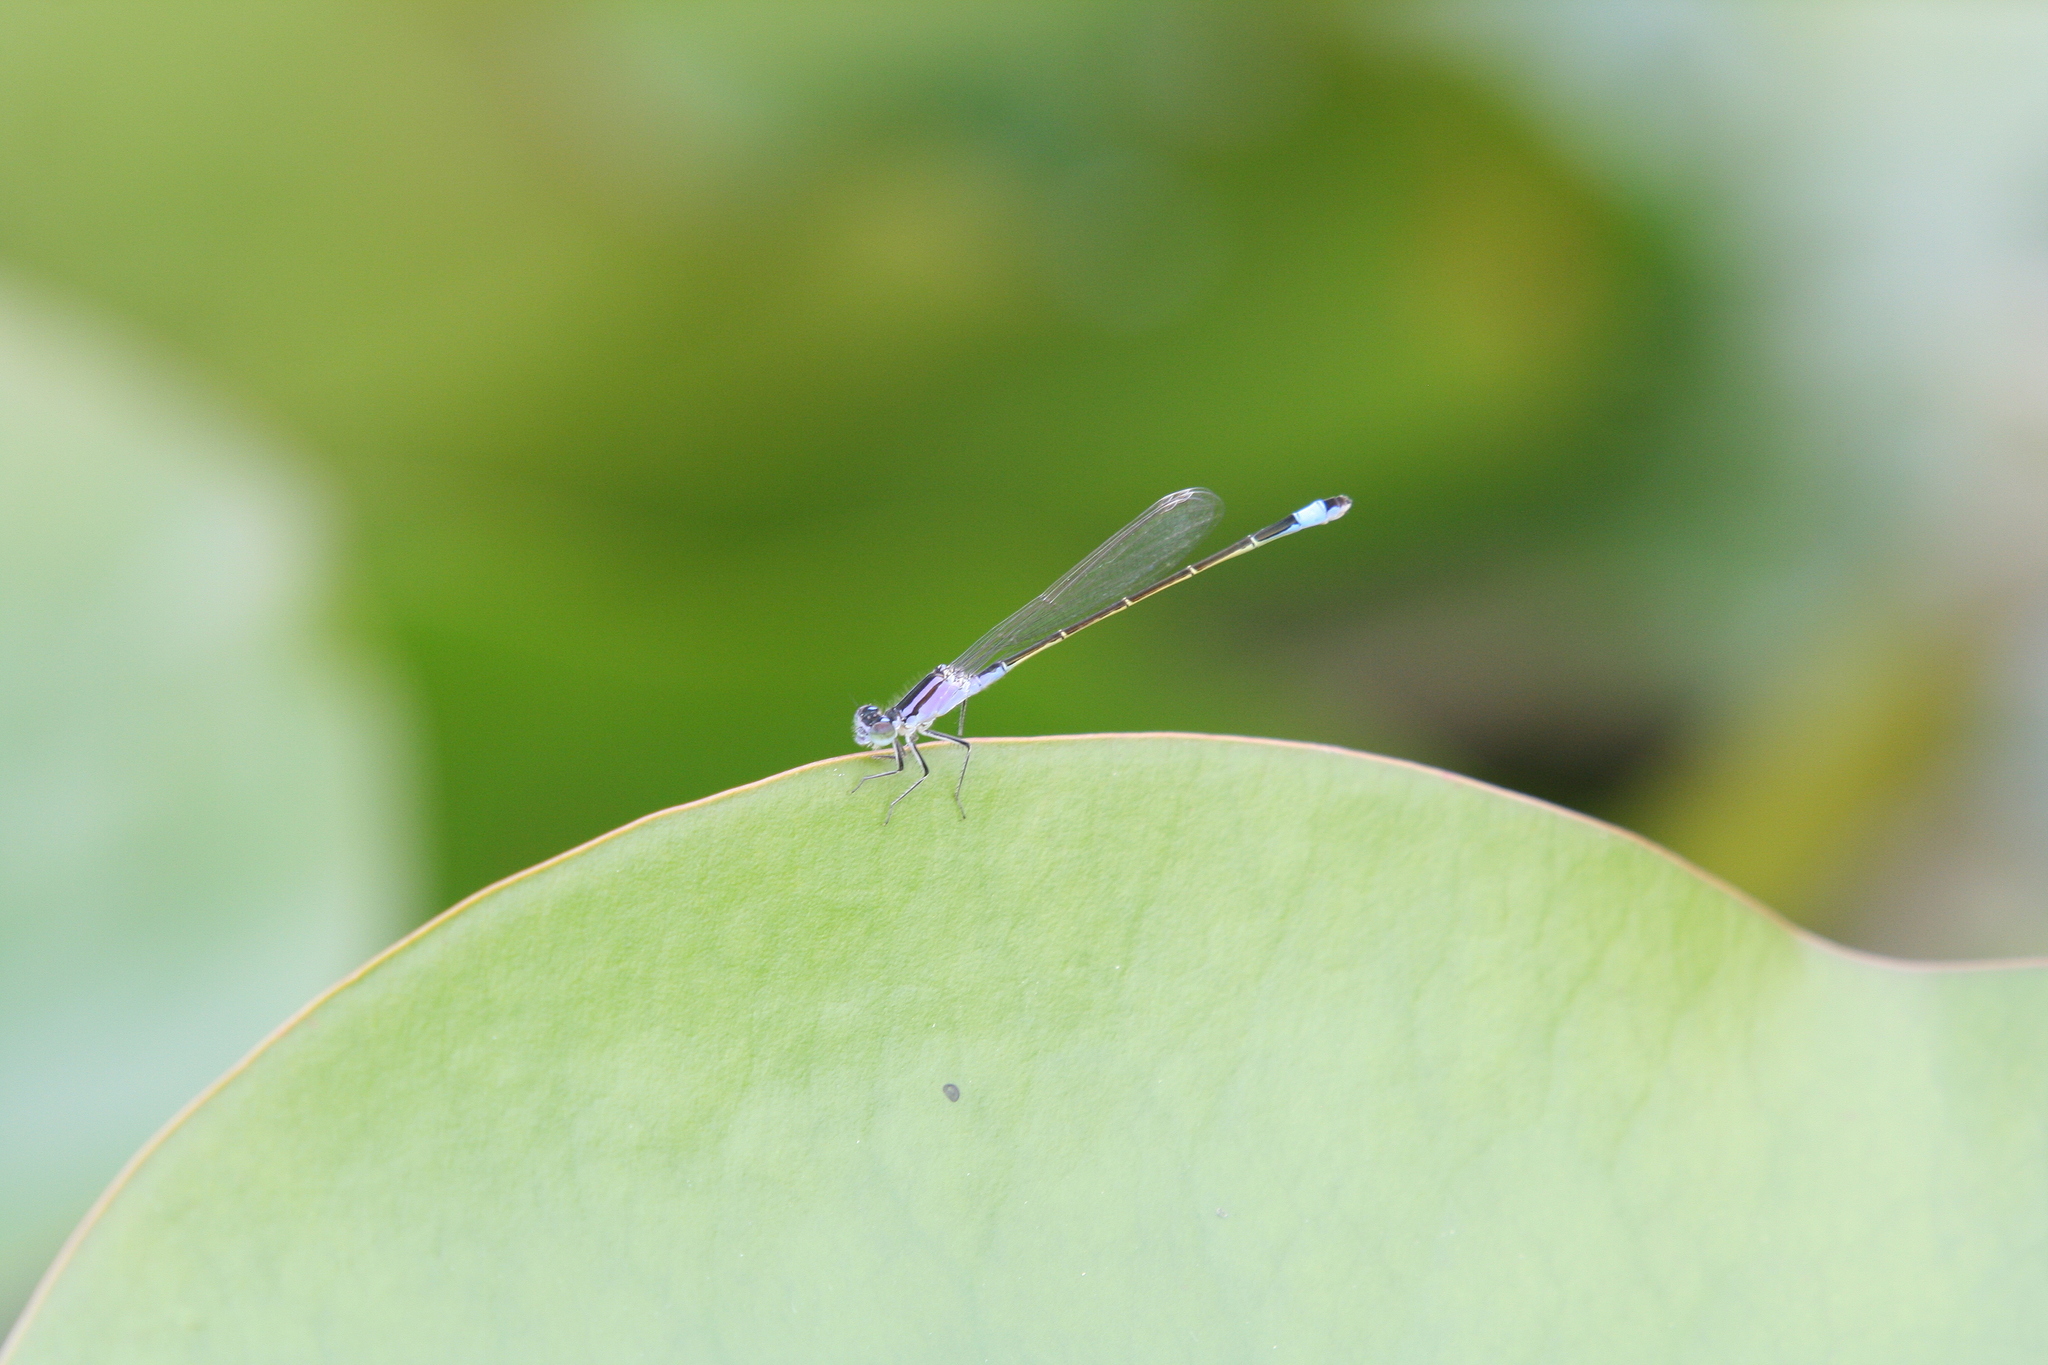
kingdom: Animalia
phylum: Arthropoda
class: Insecta
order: Odonata
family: Coenagrionidae
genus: Ischnura
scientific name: Ischnura elegans
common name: Blue-tailed damselfly
